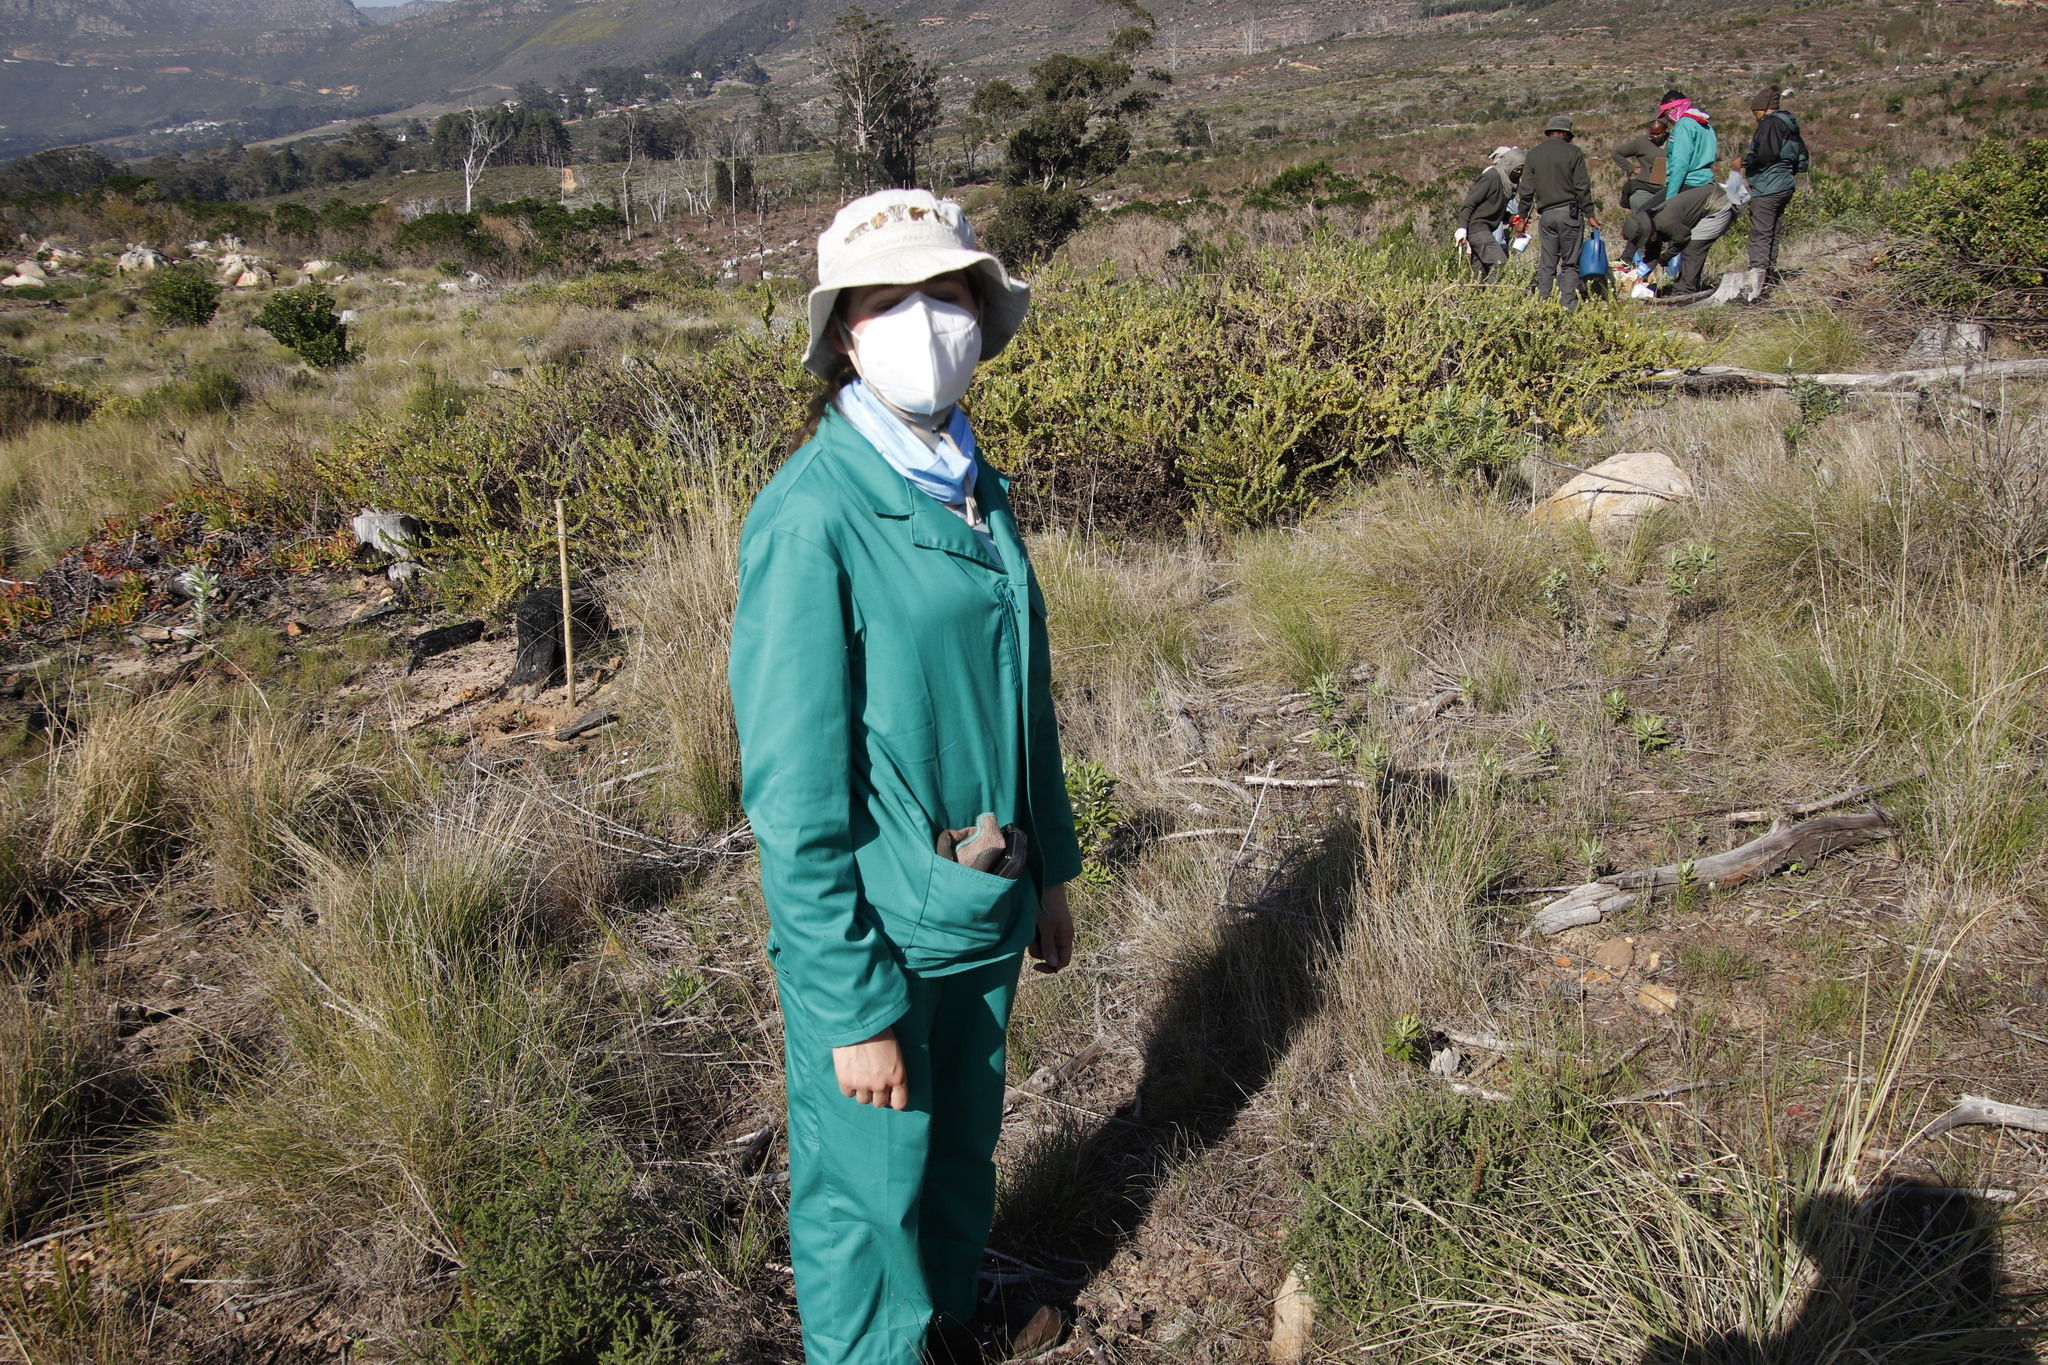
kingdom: Plantae
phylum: Tracheophyta
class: Magnoliopsida
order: Lamiales
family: Scrophulariaceae
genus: Oftia
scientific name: Oftia africana
